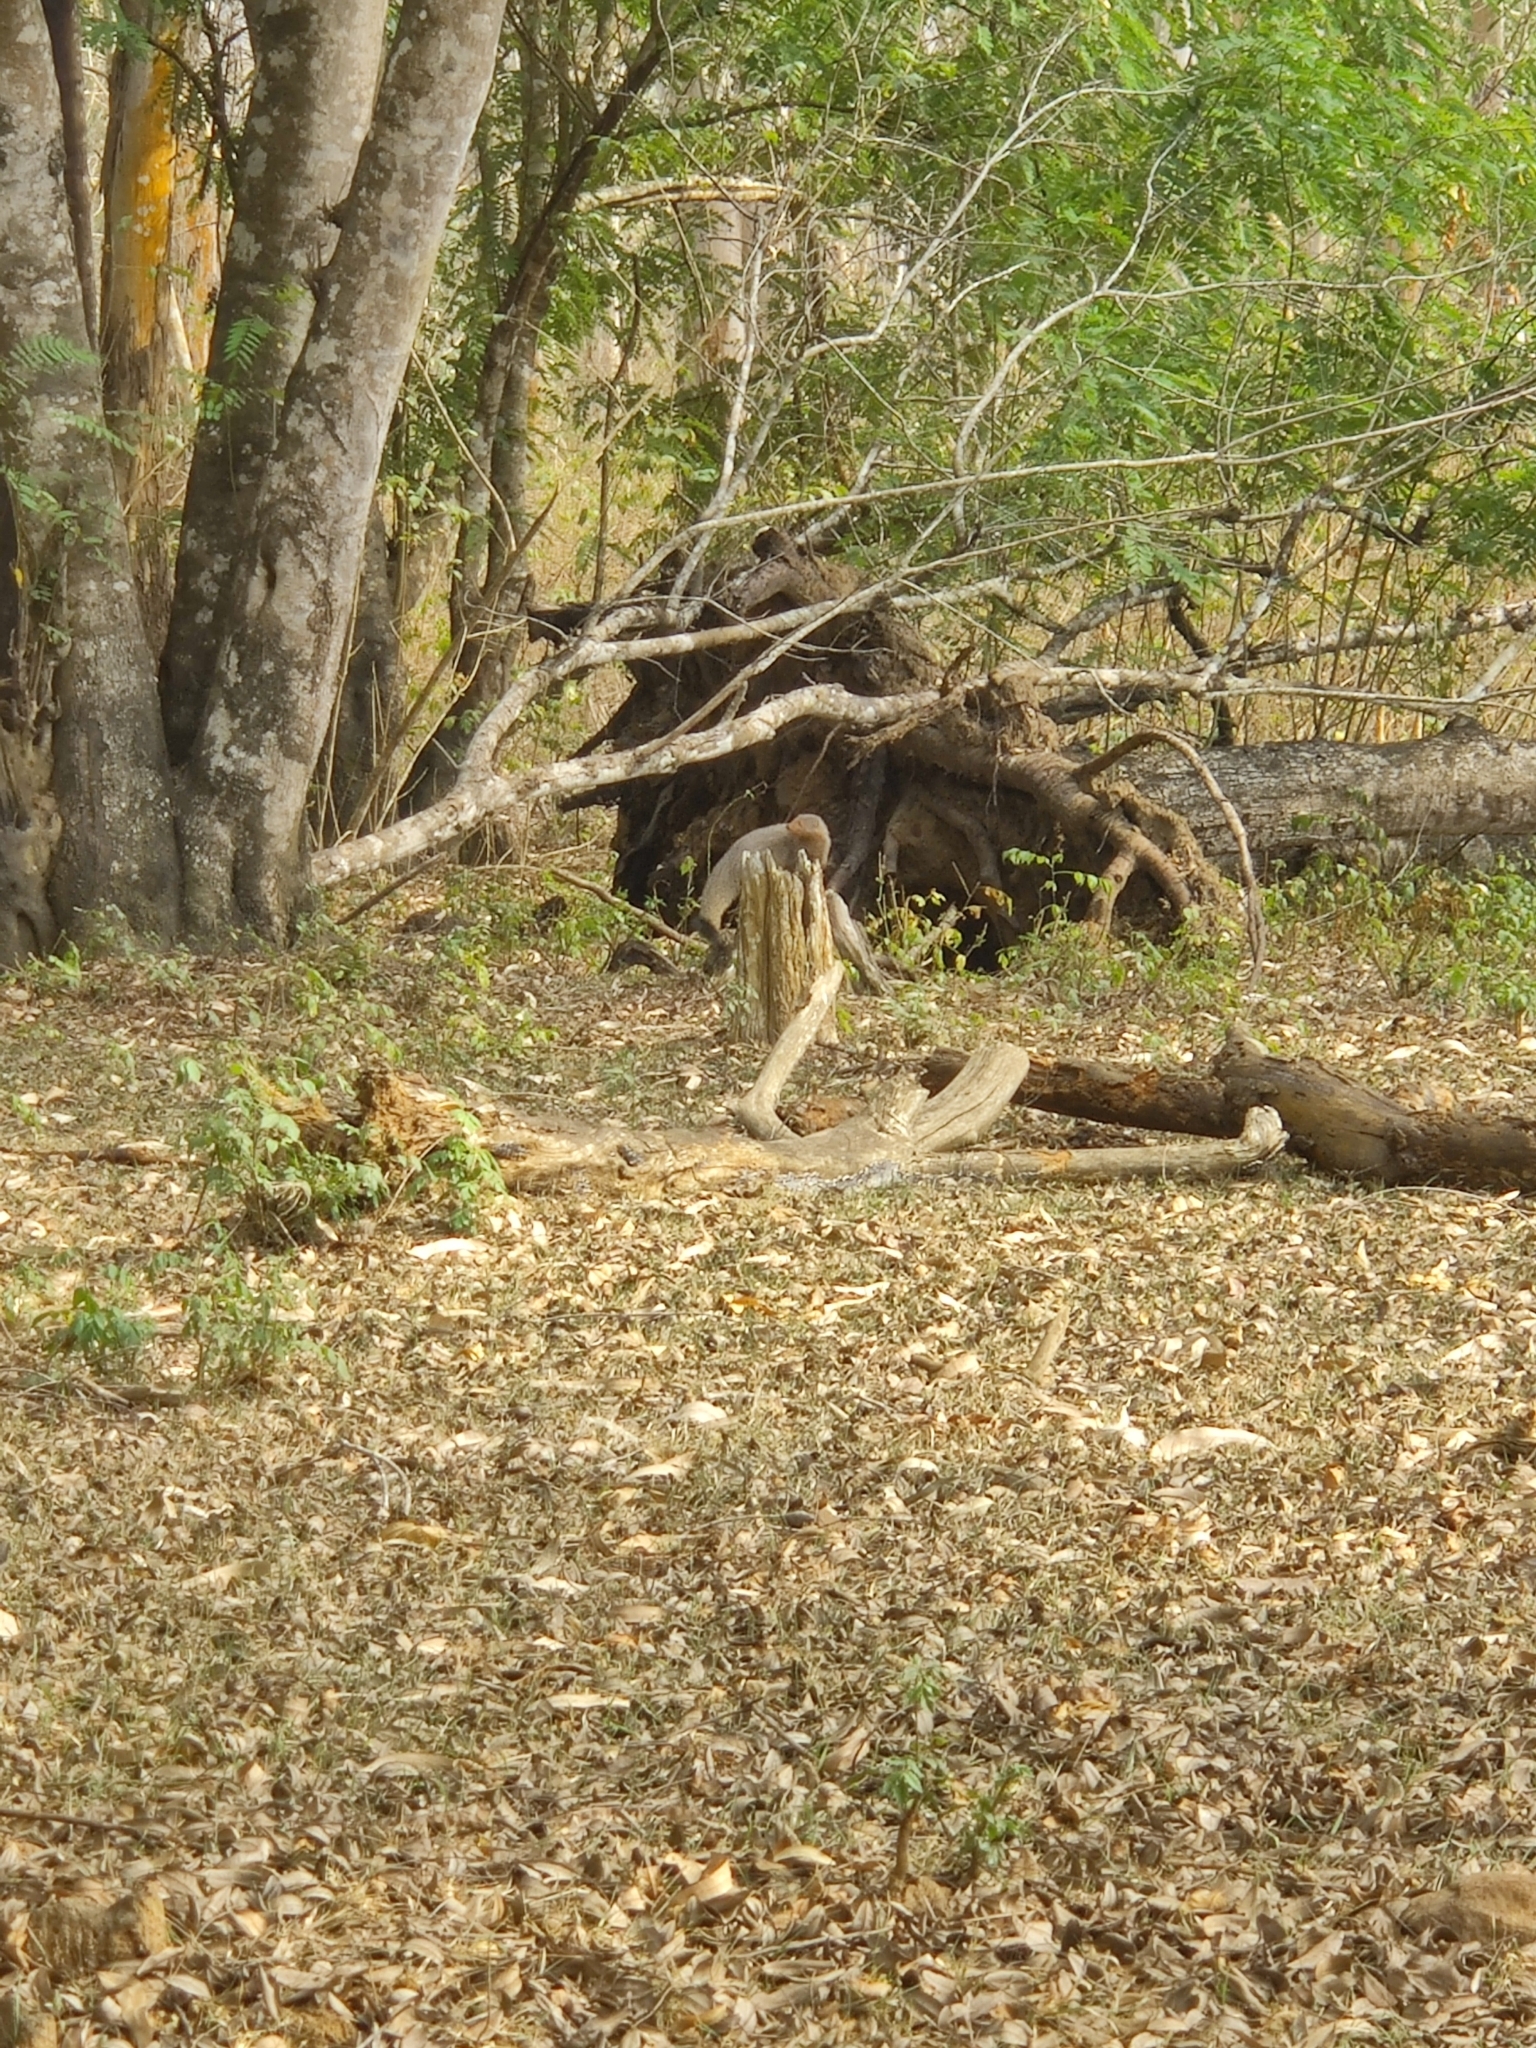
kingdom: Animalia
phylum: Chordata
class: Mammalia
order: Carnivora
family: Herpestidae
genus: Herpestes
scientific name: Herpestes smithii
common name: Ruddy mongoose
